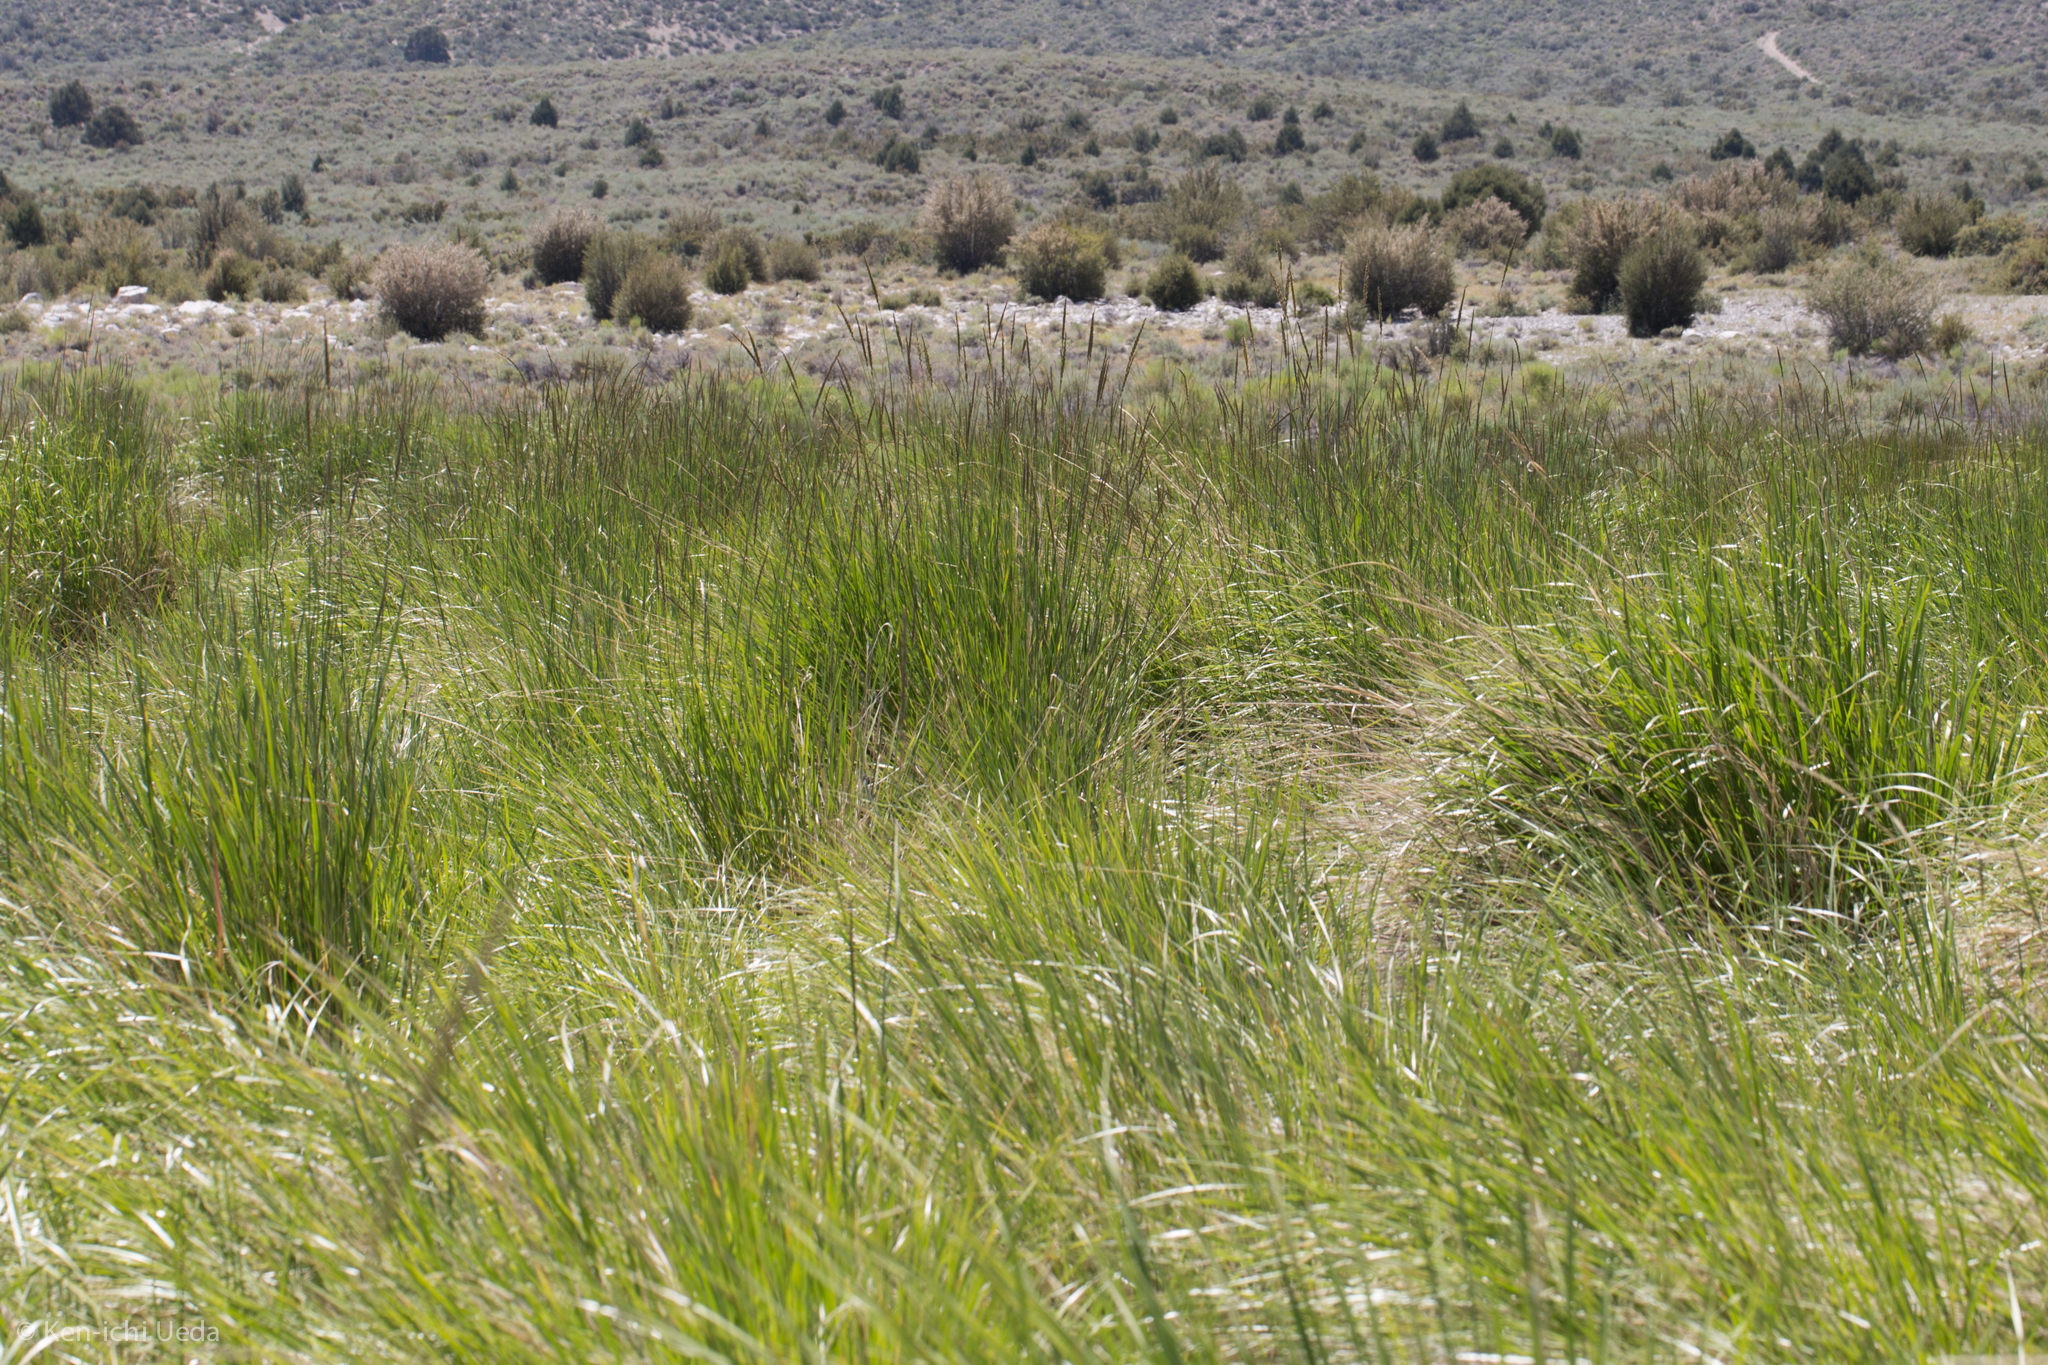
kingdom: Plantae
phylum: Tracheophyta
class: Liliopsida
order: Poales
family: Poaceae
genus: Leymus
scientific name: Leymus cinereus
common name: Basin wild rye
